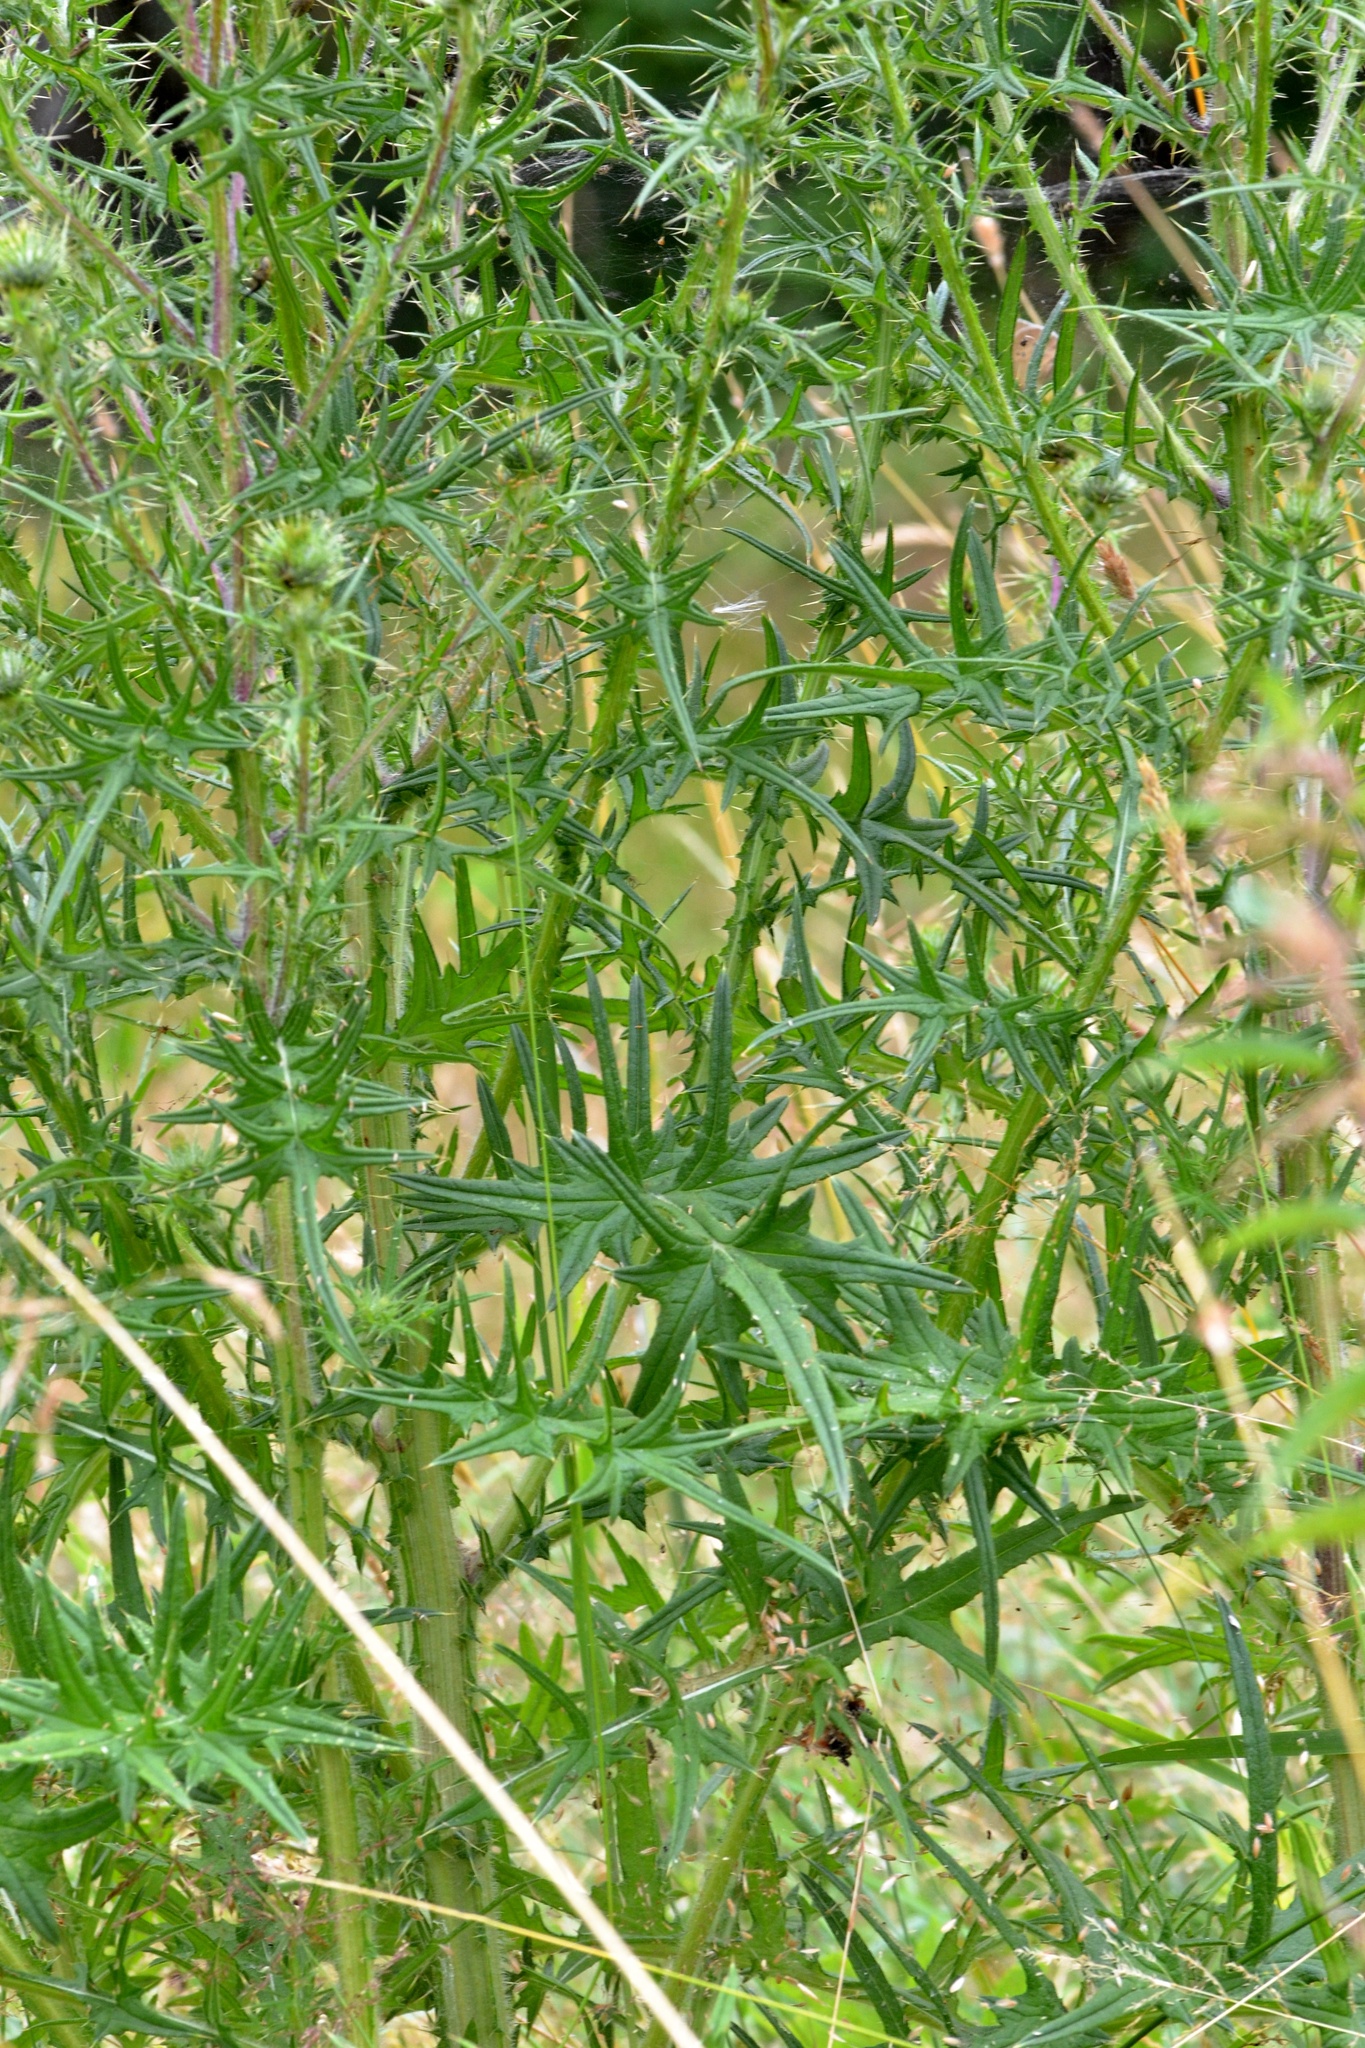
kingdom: Plantae
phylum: Tracheophyta
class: Magnoliopsida
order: Asterales
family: Asteraceae
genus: Cirsium
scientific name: Cirsium vulgare
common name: Bull thistle
